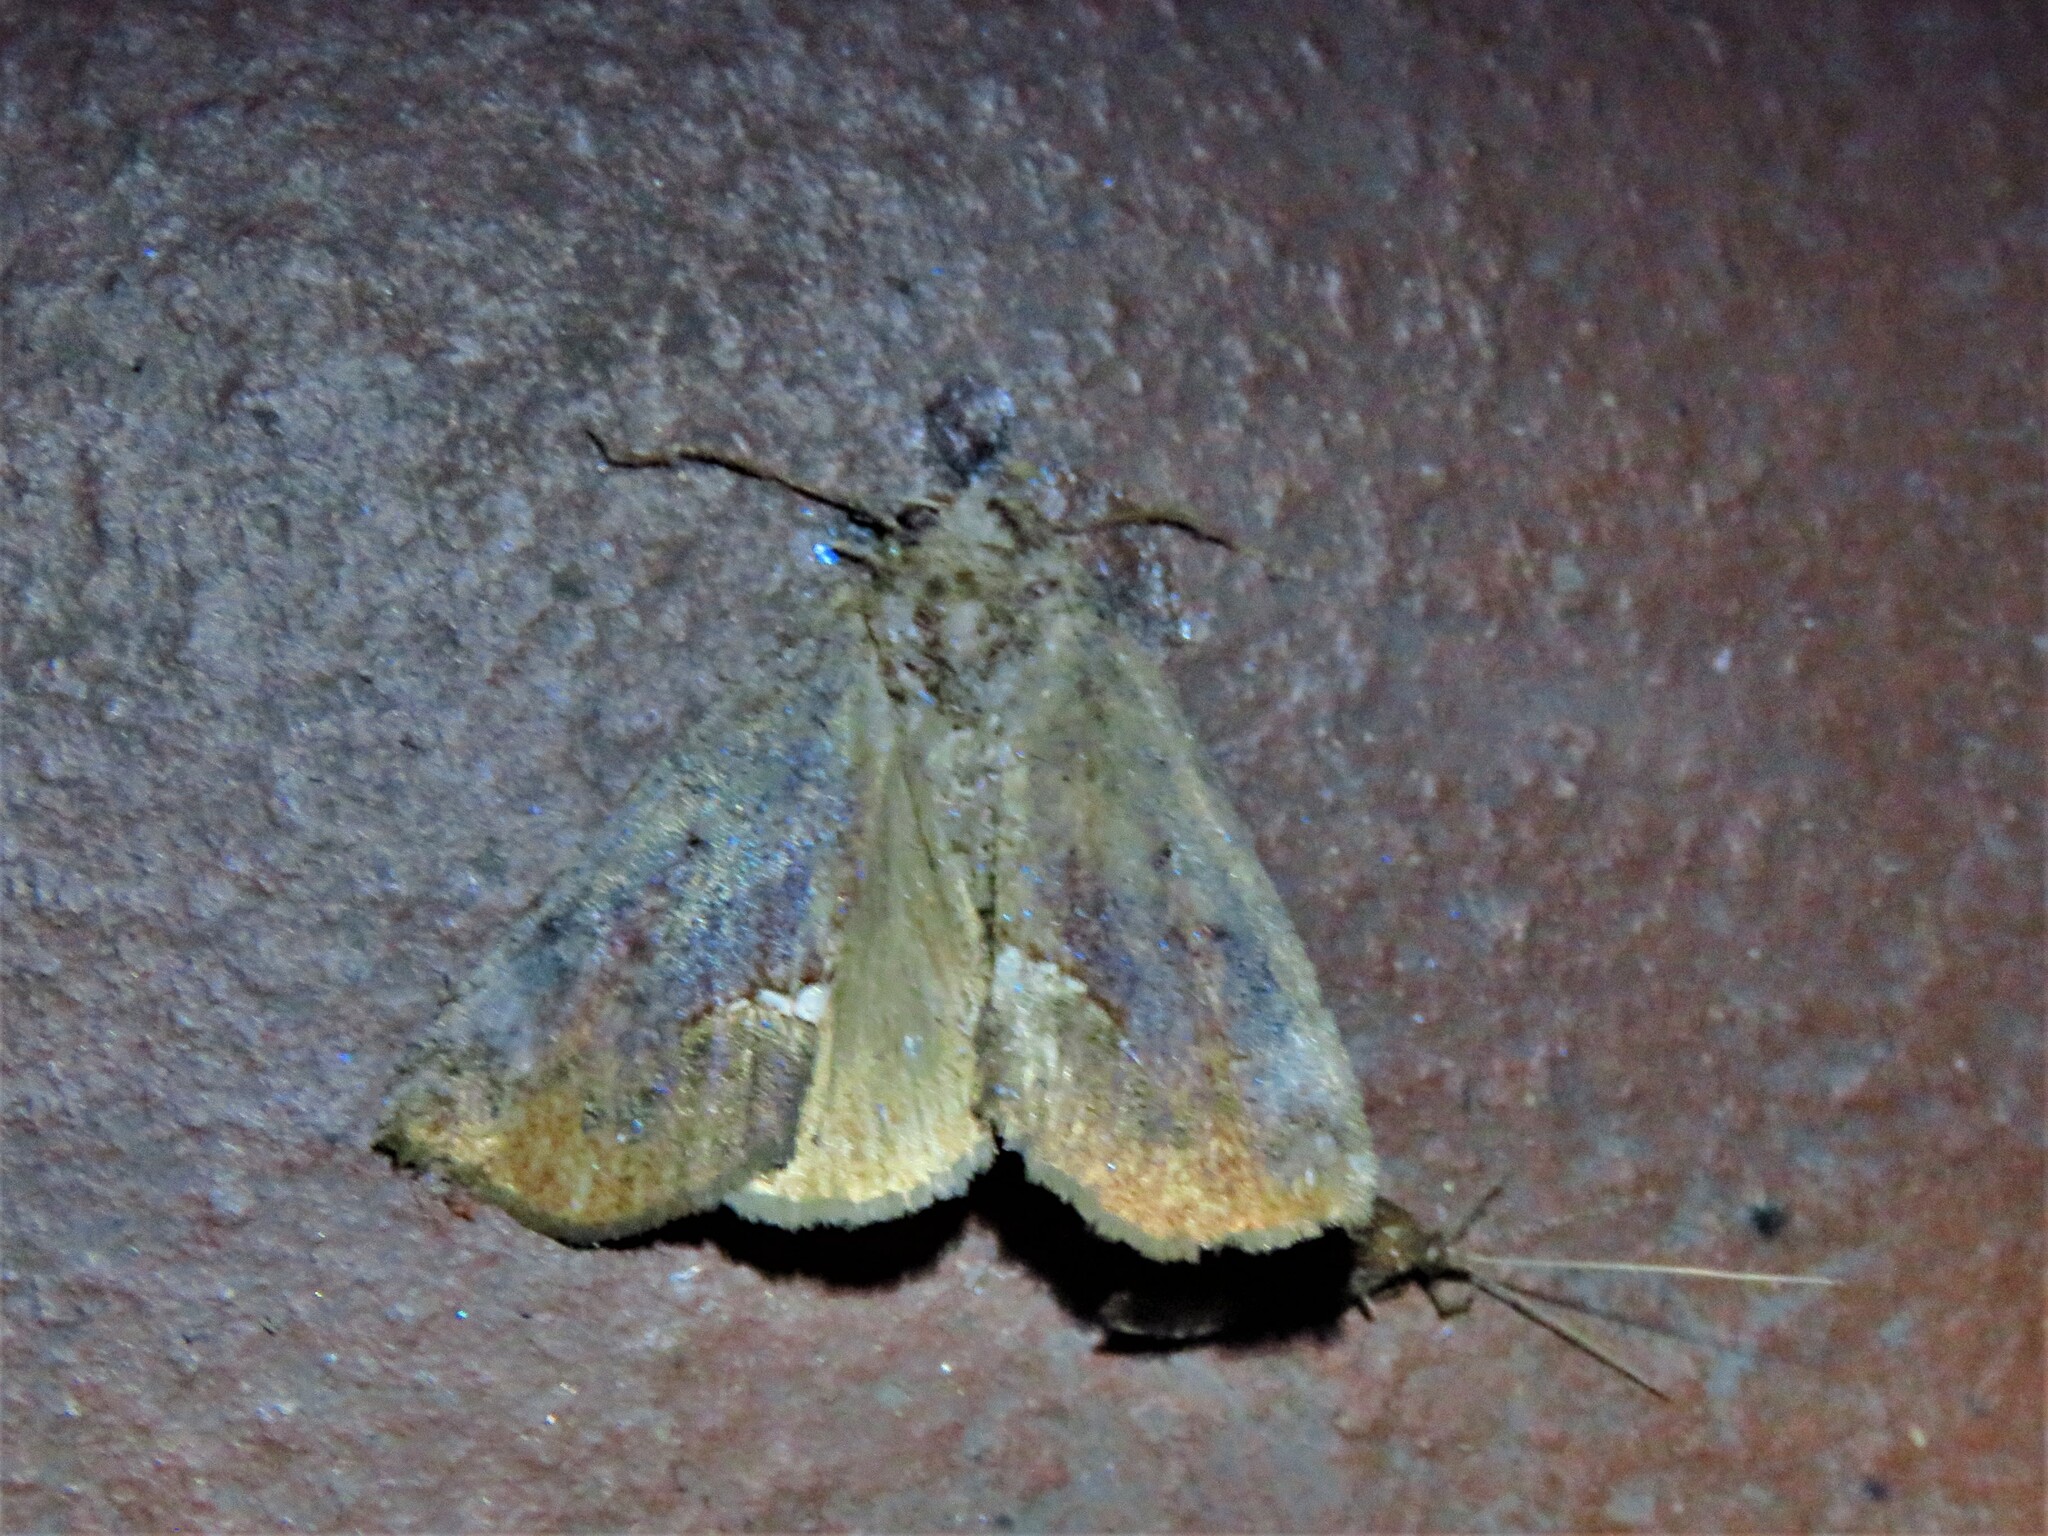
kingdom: Animalia
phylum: Arthropoda
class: Insecta
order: Lepidoptera
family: Erebidae
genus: Hypsoropha
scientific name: Hypsoropha hormos
